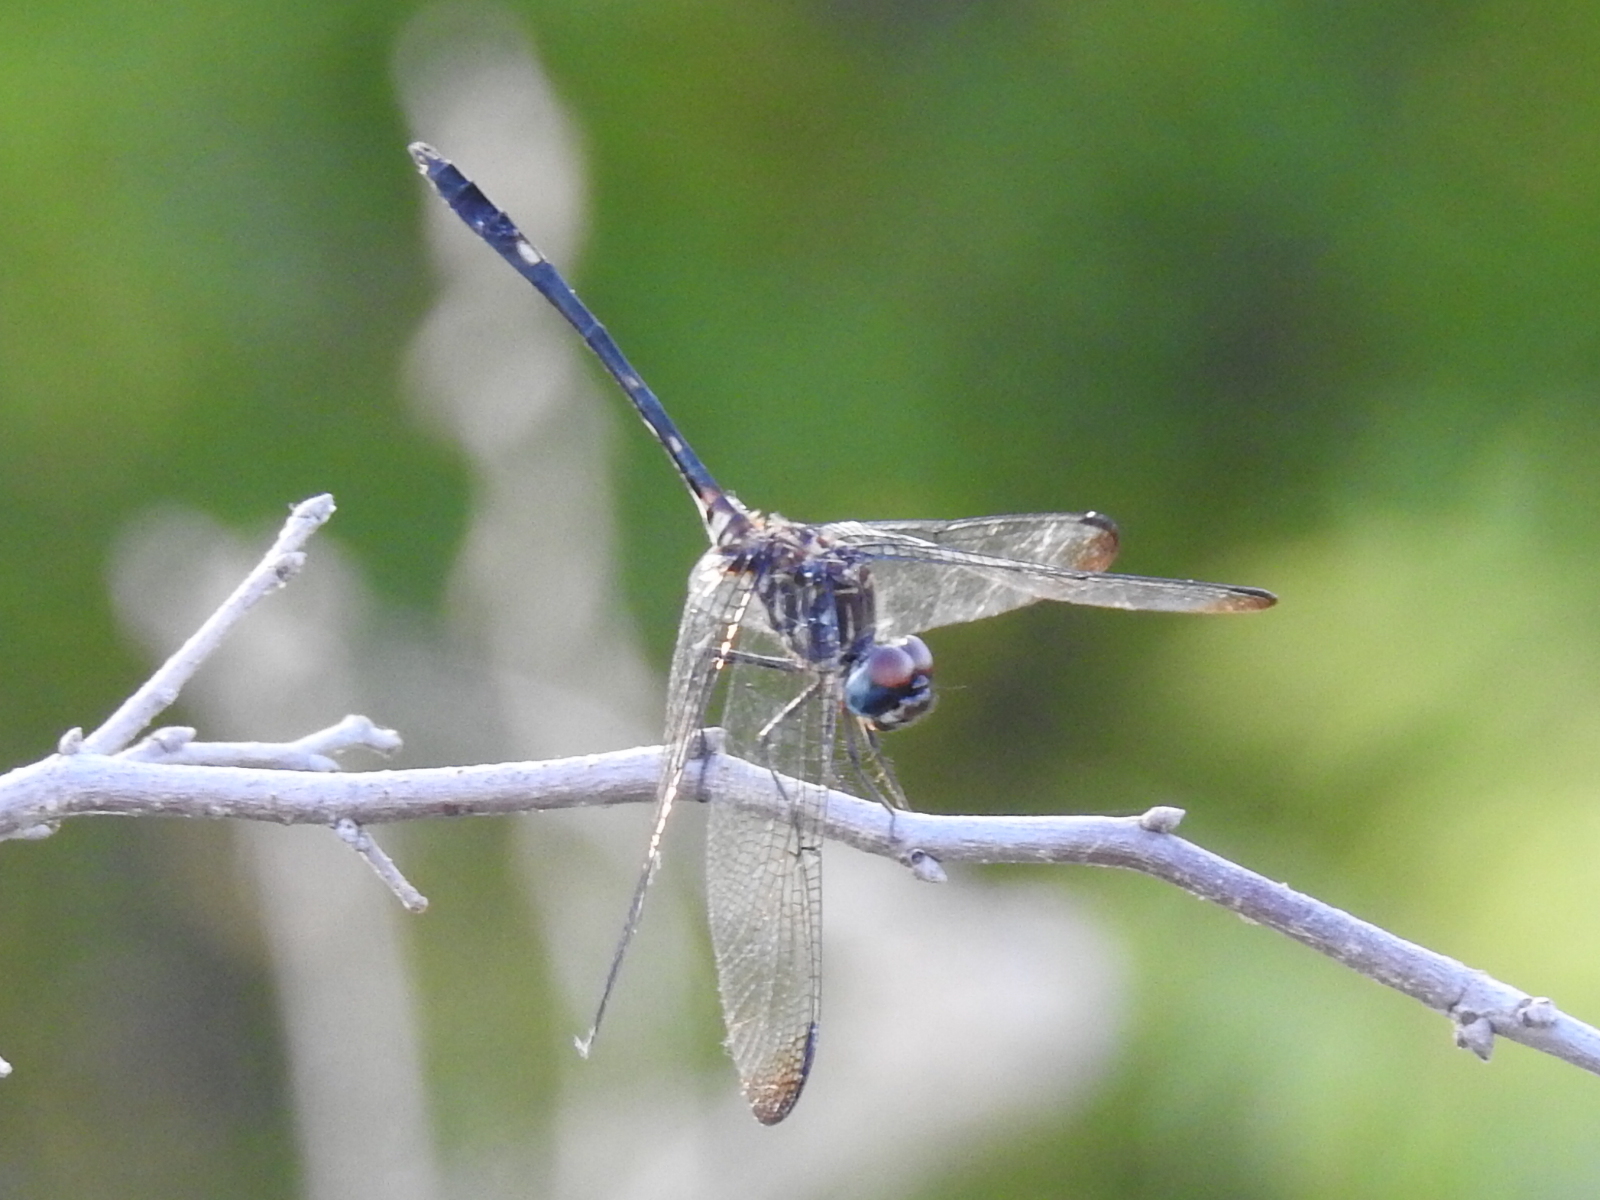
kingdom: Animalia
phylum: Arthropoda
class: Insecta
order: Odonata
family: Libellulidae
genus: Dythemis
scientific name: Dythemis velox
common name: Swift setwing
